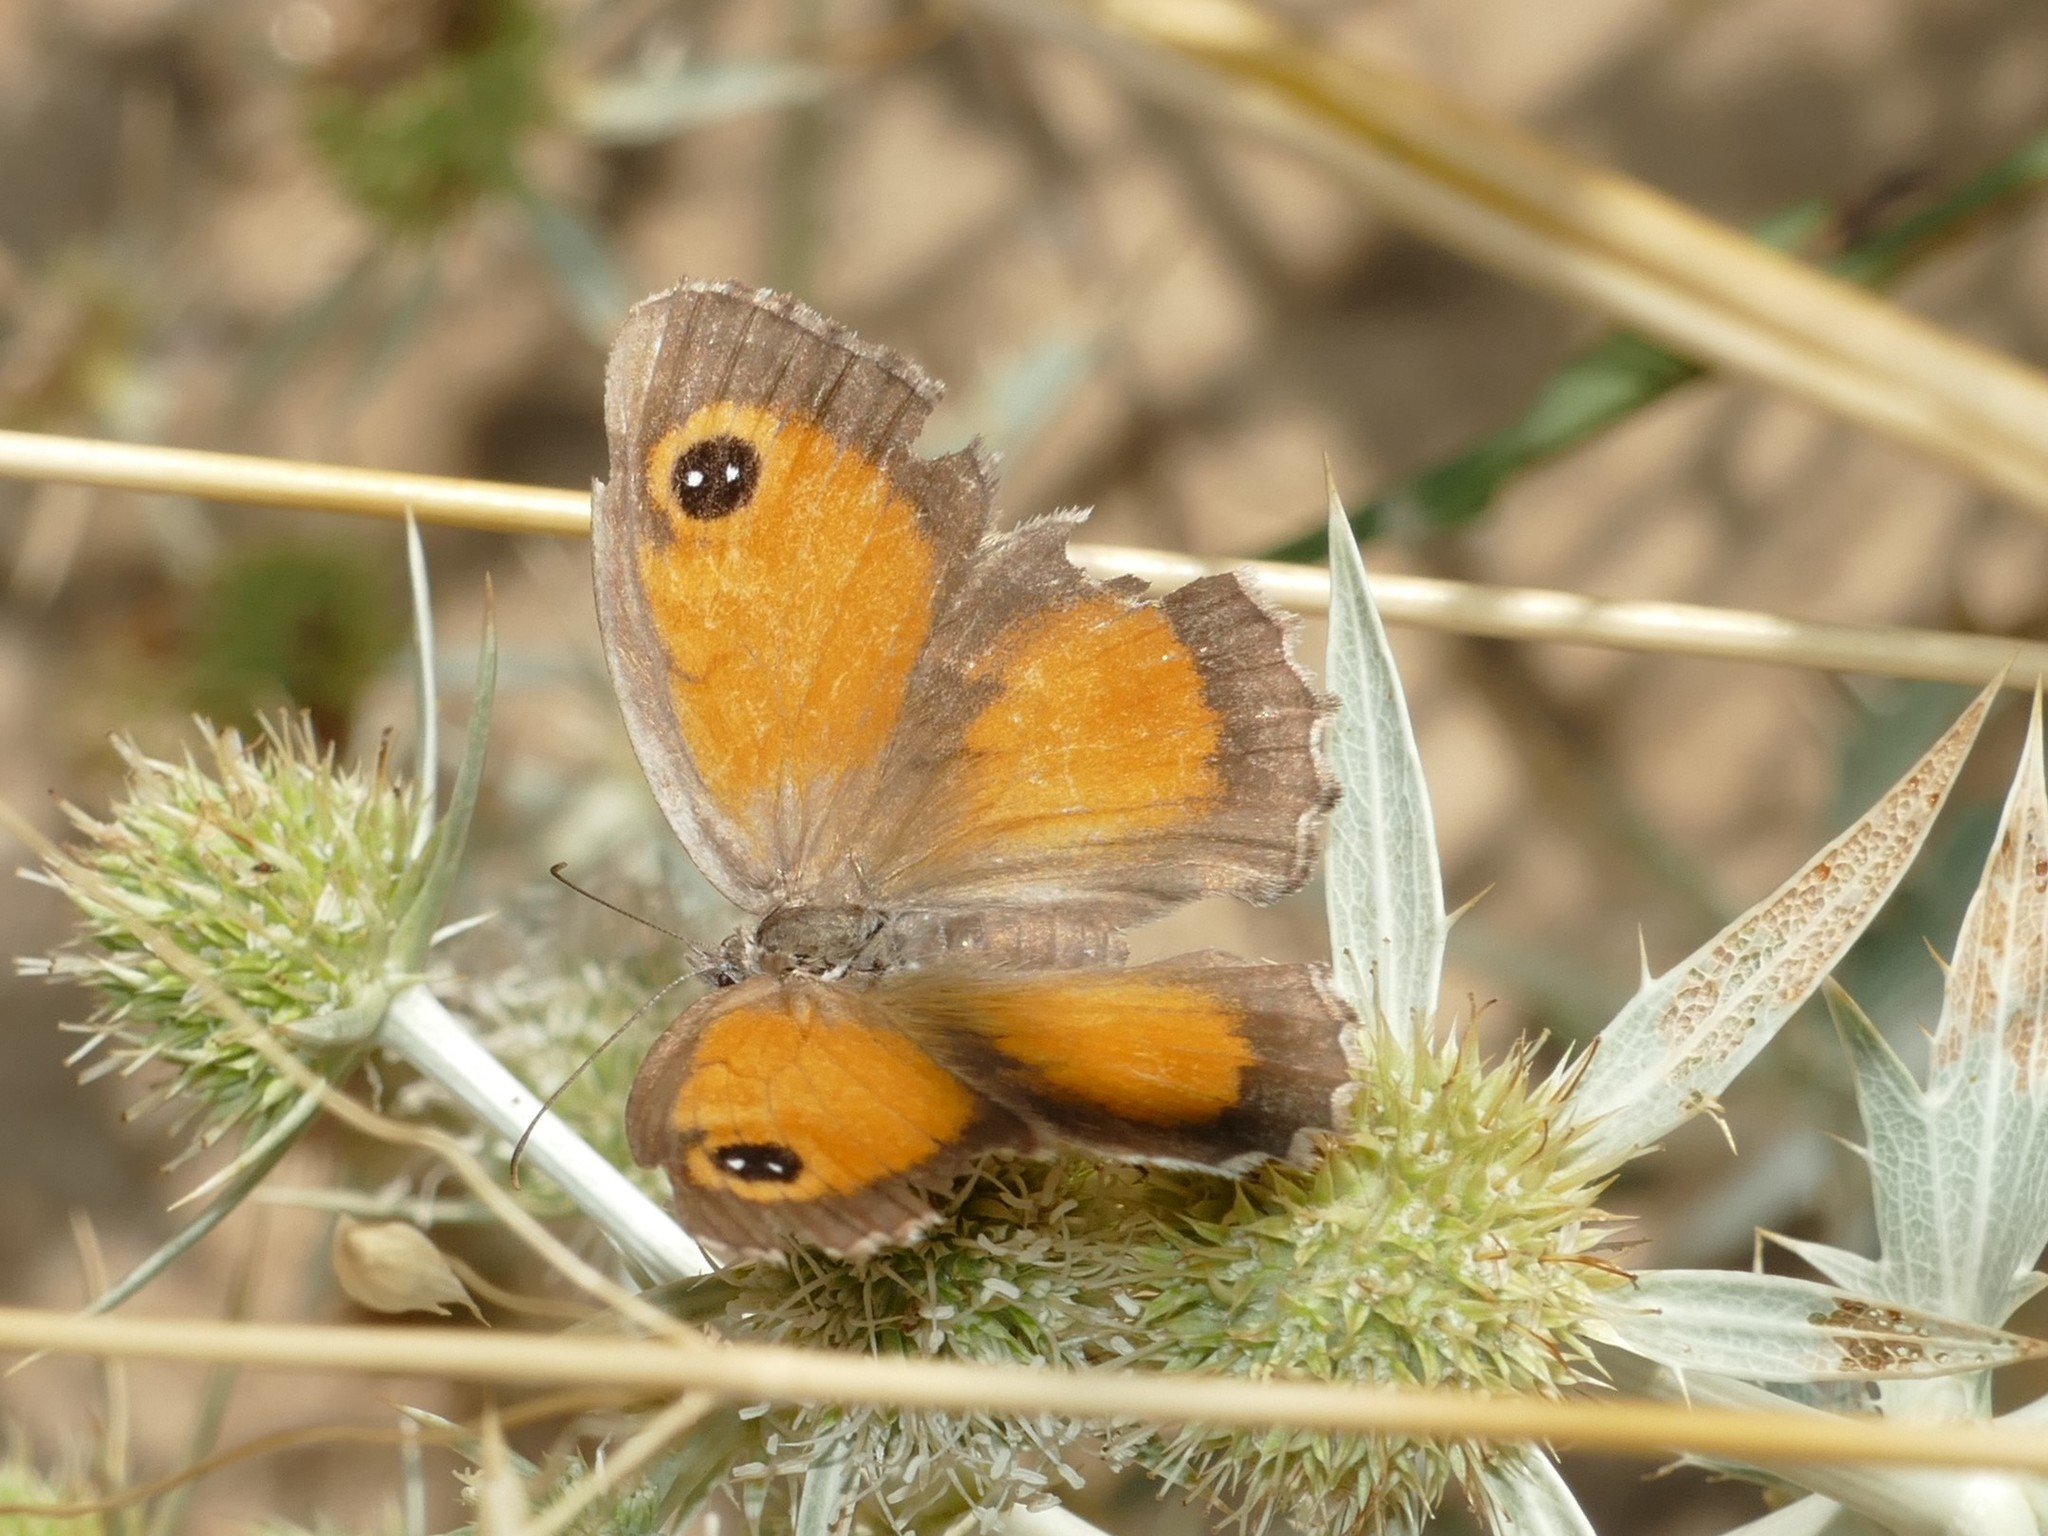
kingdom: Animalia
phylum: Arthropoda
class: Insecta
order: Lepidoptera
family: Nymphalidae
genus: Pyronia
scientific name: Pyronia cecilia
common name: Southern gatekeeper
